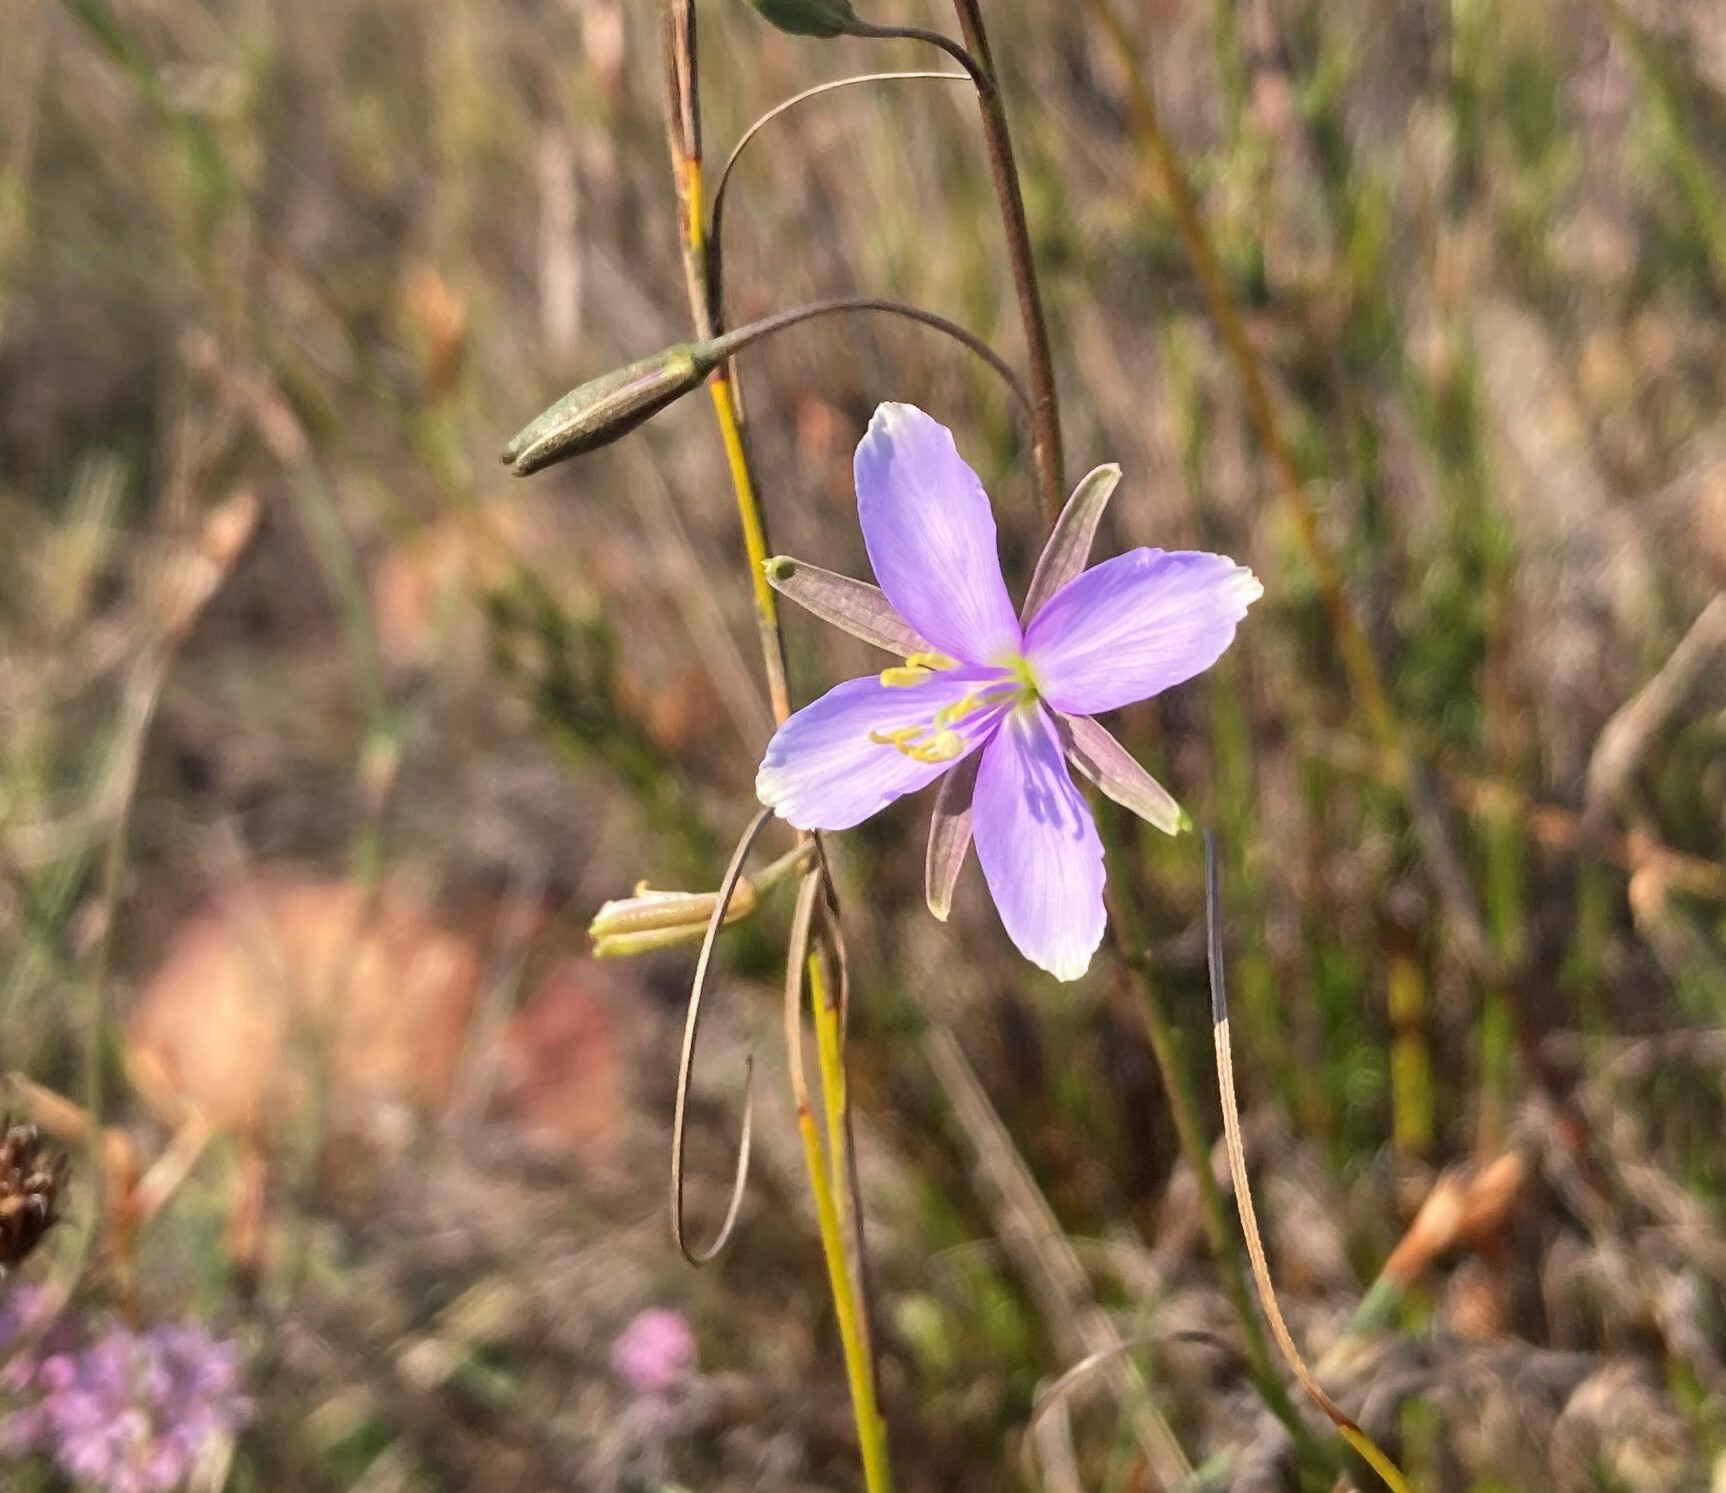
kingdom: Plantae
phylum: Tracheophyta
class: Magnoliopsida
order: Brassicales
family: Brassicaceae
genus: Heliophila
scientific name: Heliophila subulata
